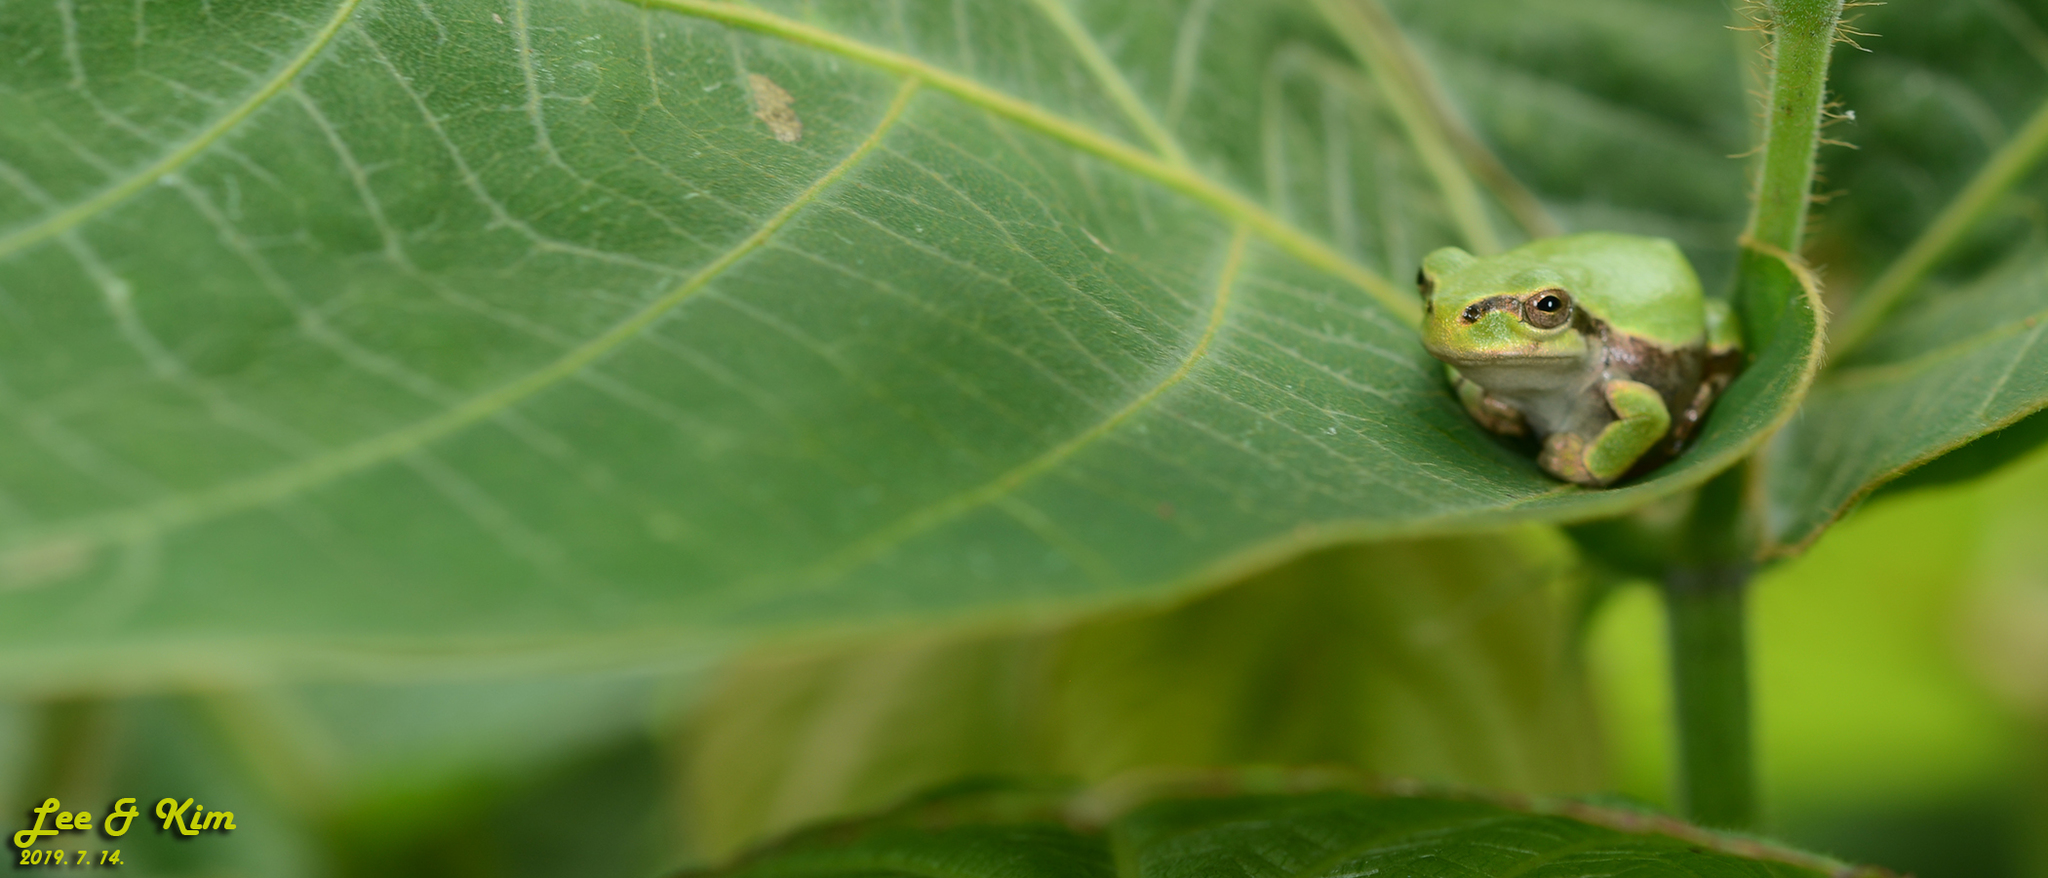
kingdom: Animalia
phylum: Chordata
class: Amphibia
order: Anura
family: Hylidae
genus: Dryophytes
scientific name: Dryophytes japonicus
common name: Japanese treefrog
